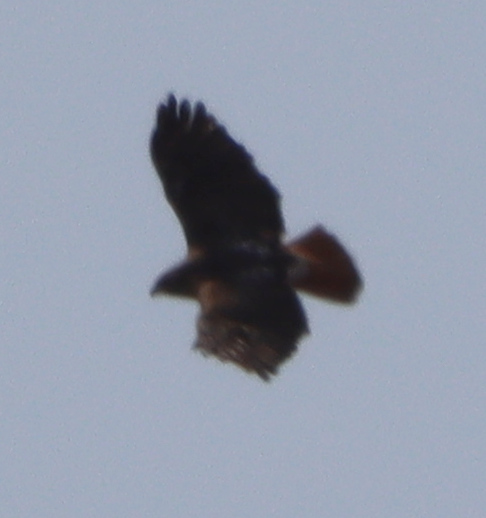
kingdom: Animalia
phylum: Chordata
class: Aves
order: Accipitriformes
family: Accipitridae
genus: Buteo
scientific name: Buteo jamaicensis
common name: Red-tailed hawk
